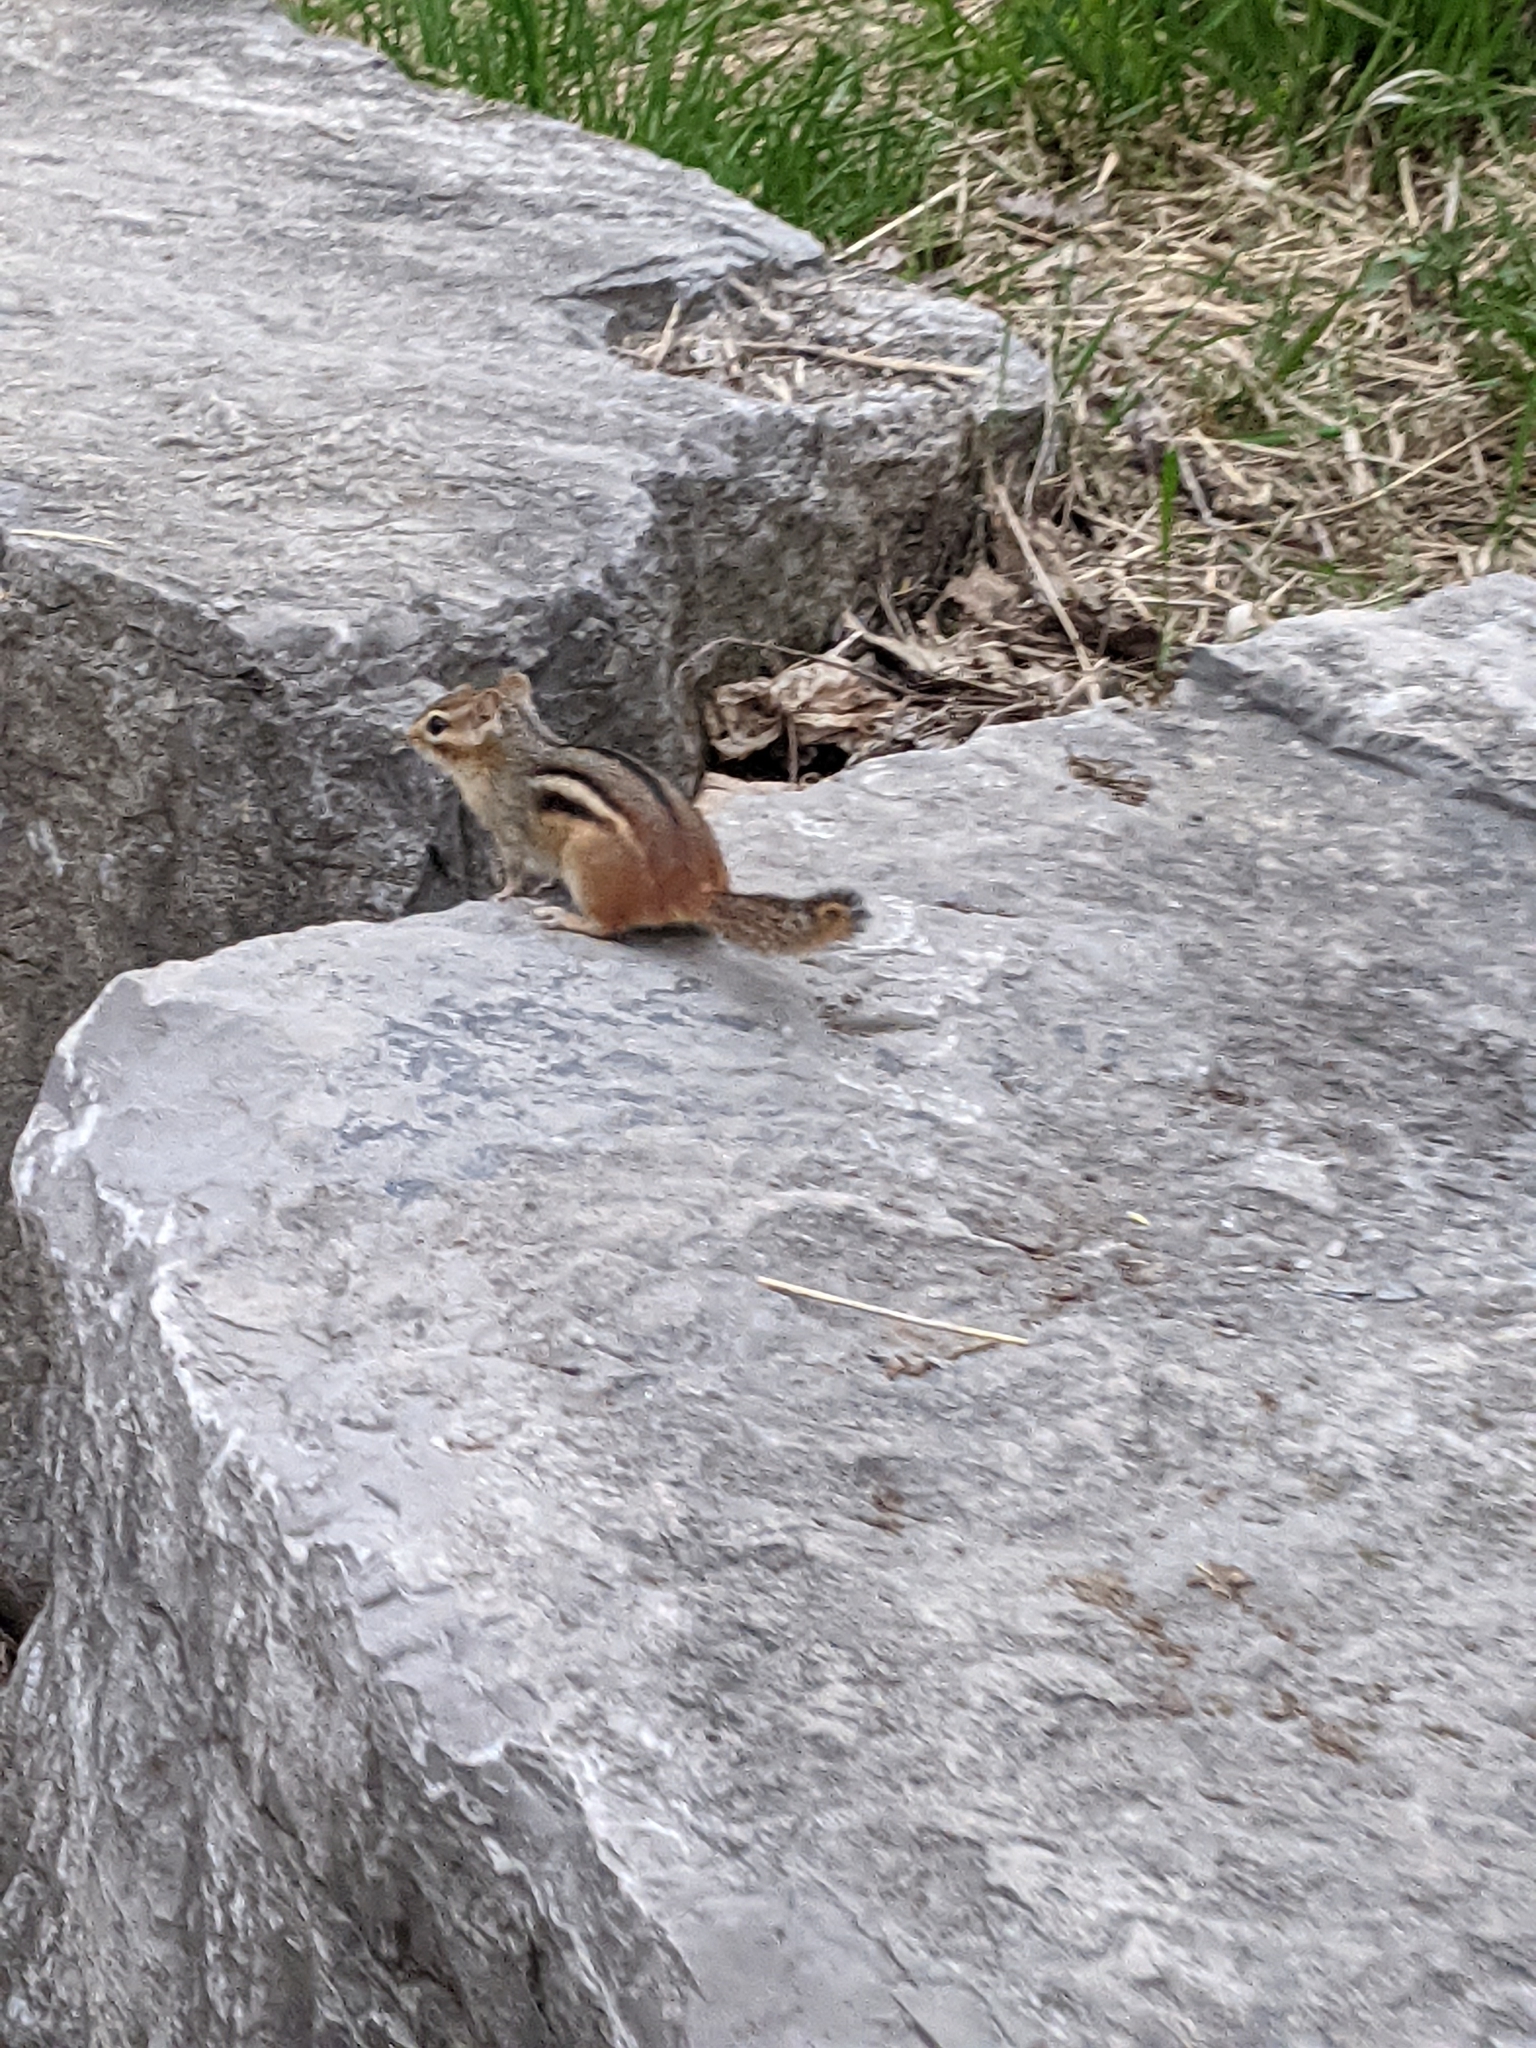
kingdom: Animalia
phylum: Chordata
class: Mammalia
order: Rodentia
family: Sciuridae
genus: Tamias
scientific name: Tamias striatus
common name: Eastern chipmunk
